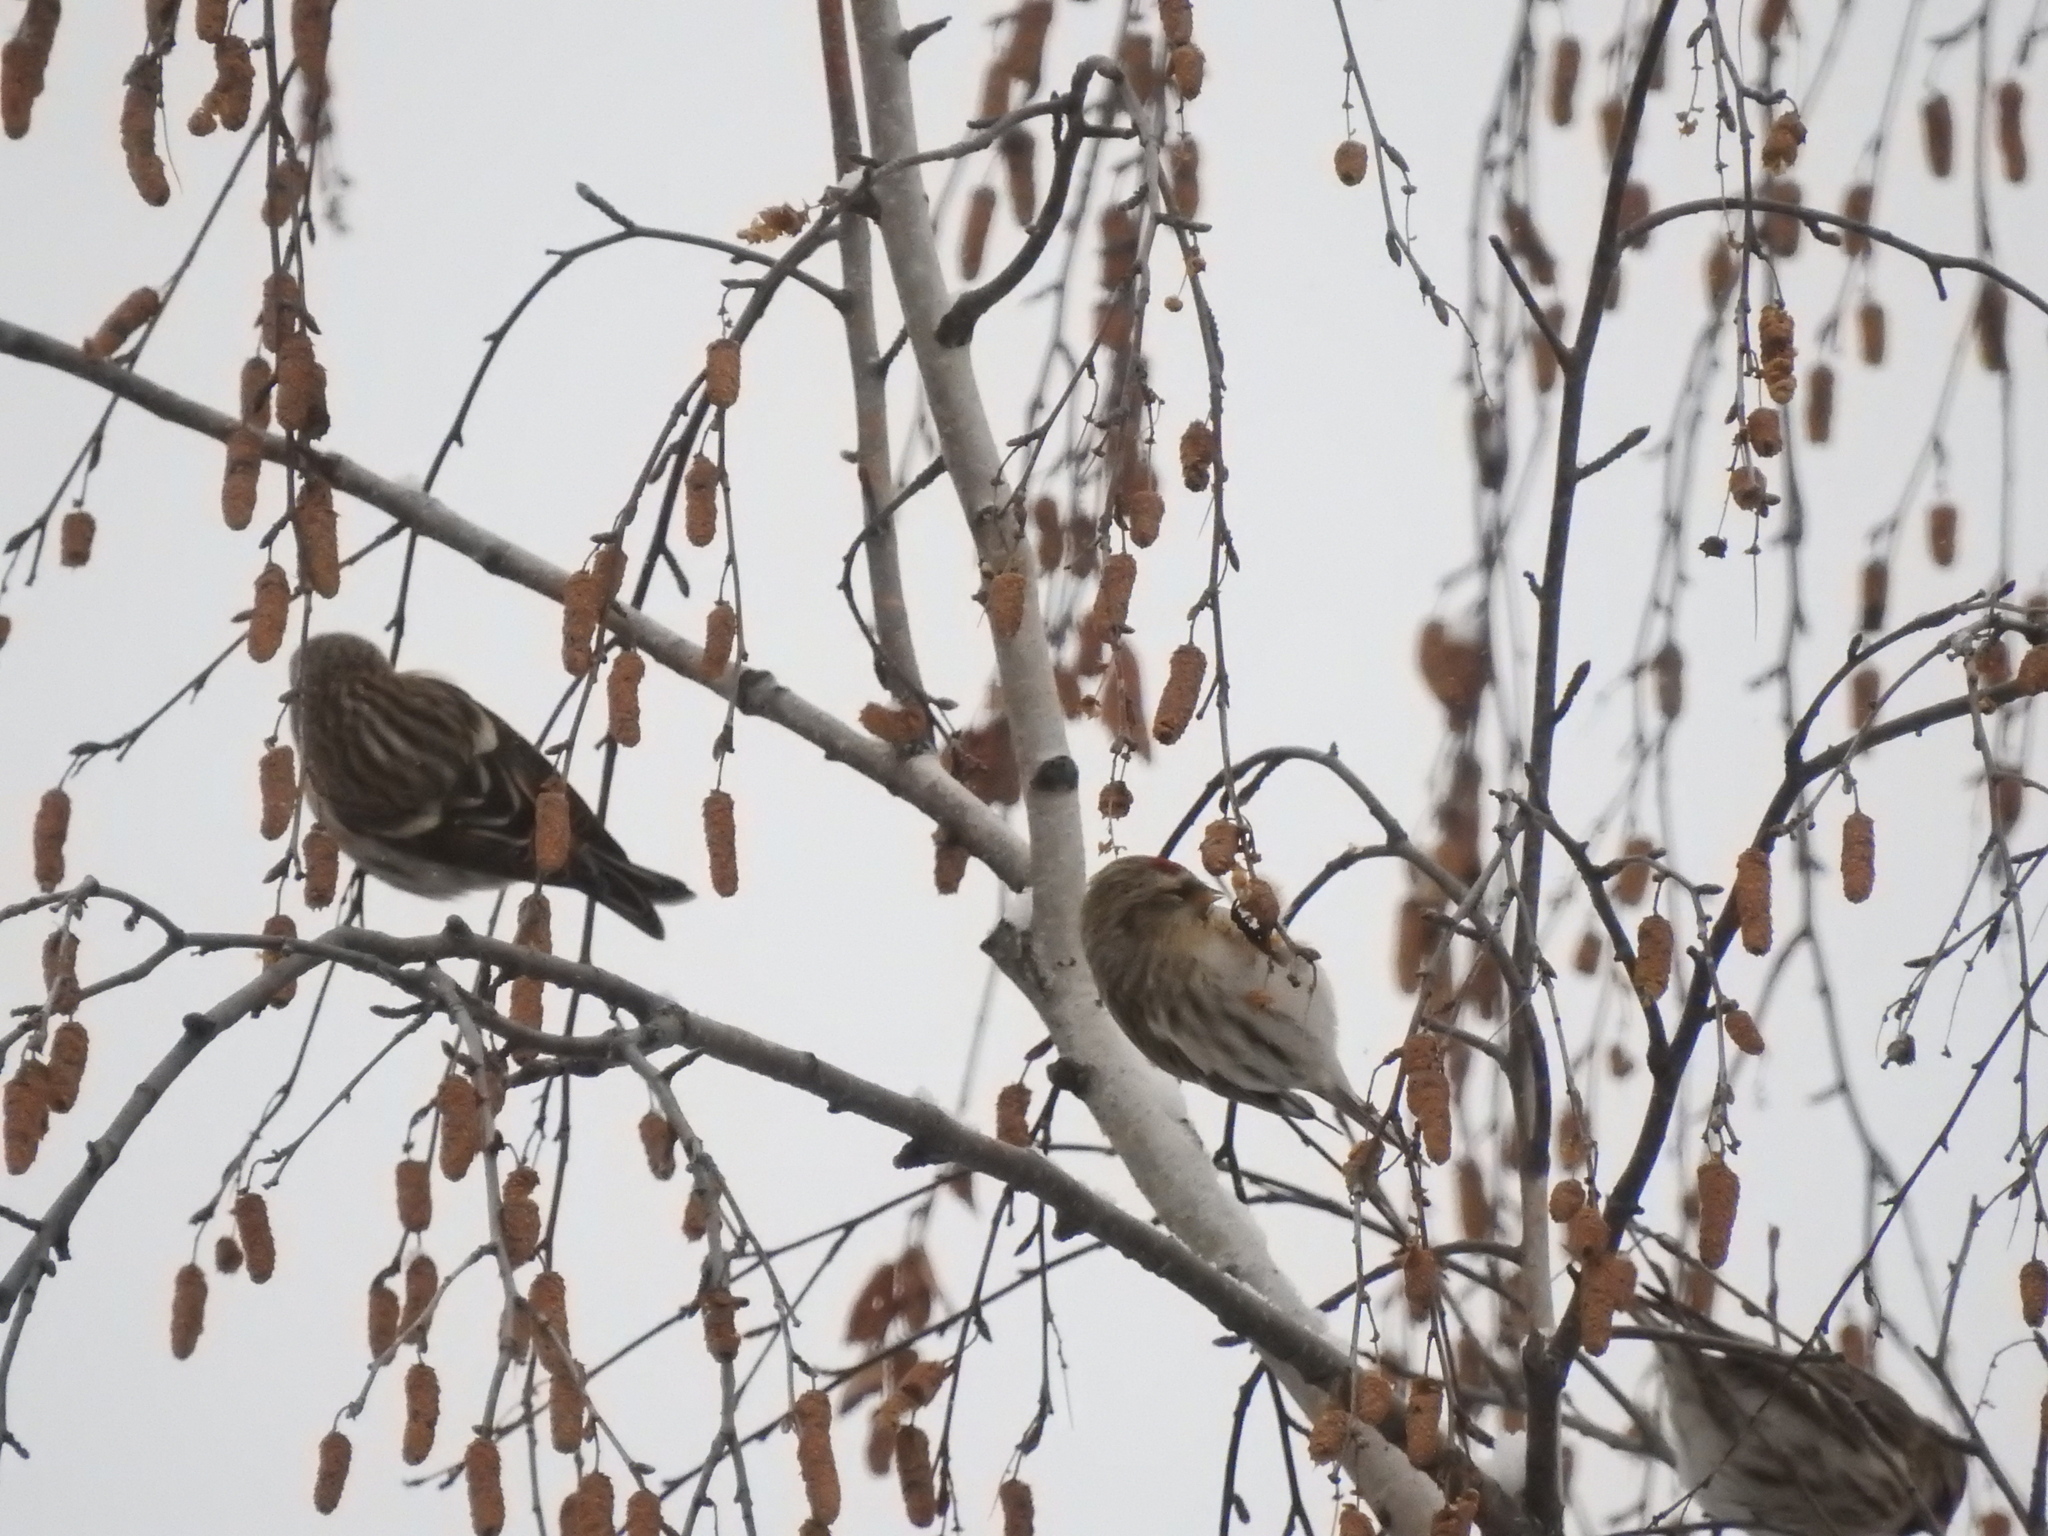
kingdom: Animalia
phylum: Chordata
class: Aves
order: Passeriformes
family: Fringillidae
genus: Acanthis
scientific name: Acanthis flammea
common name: Common redpoll
